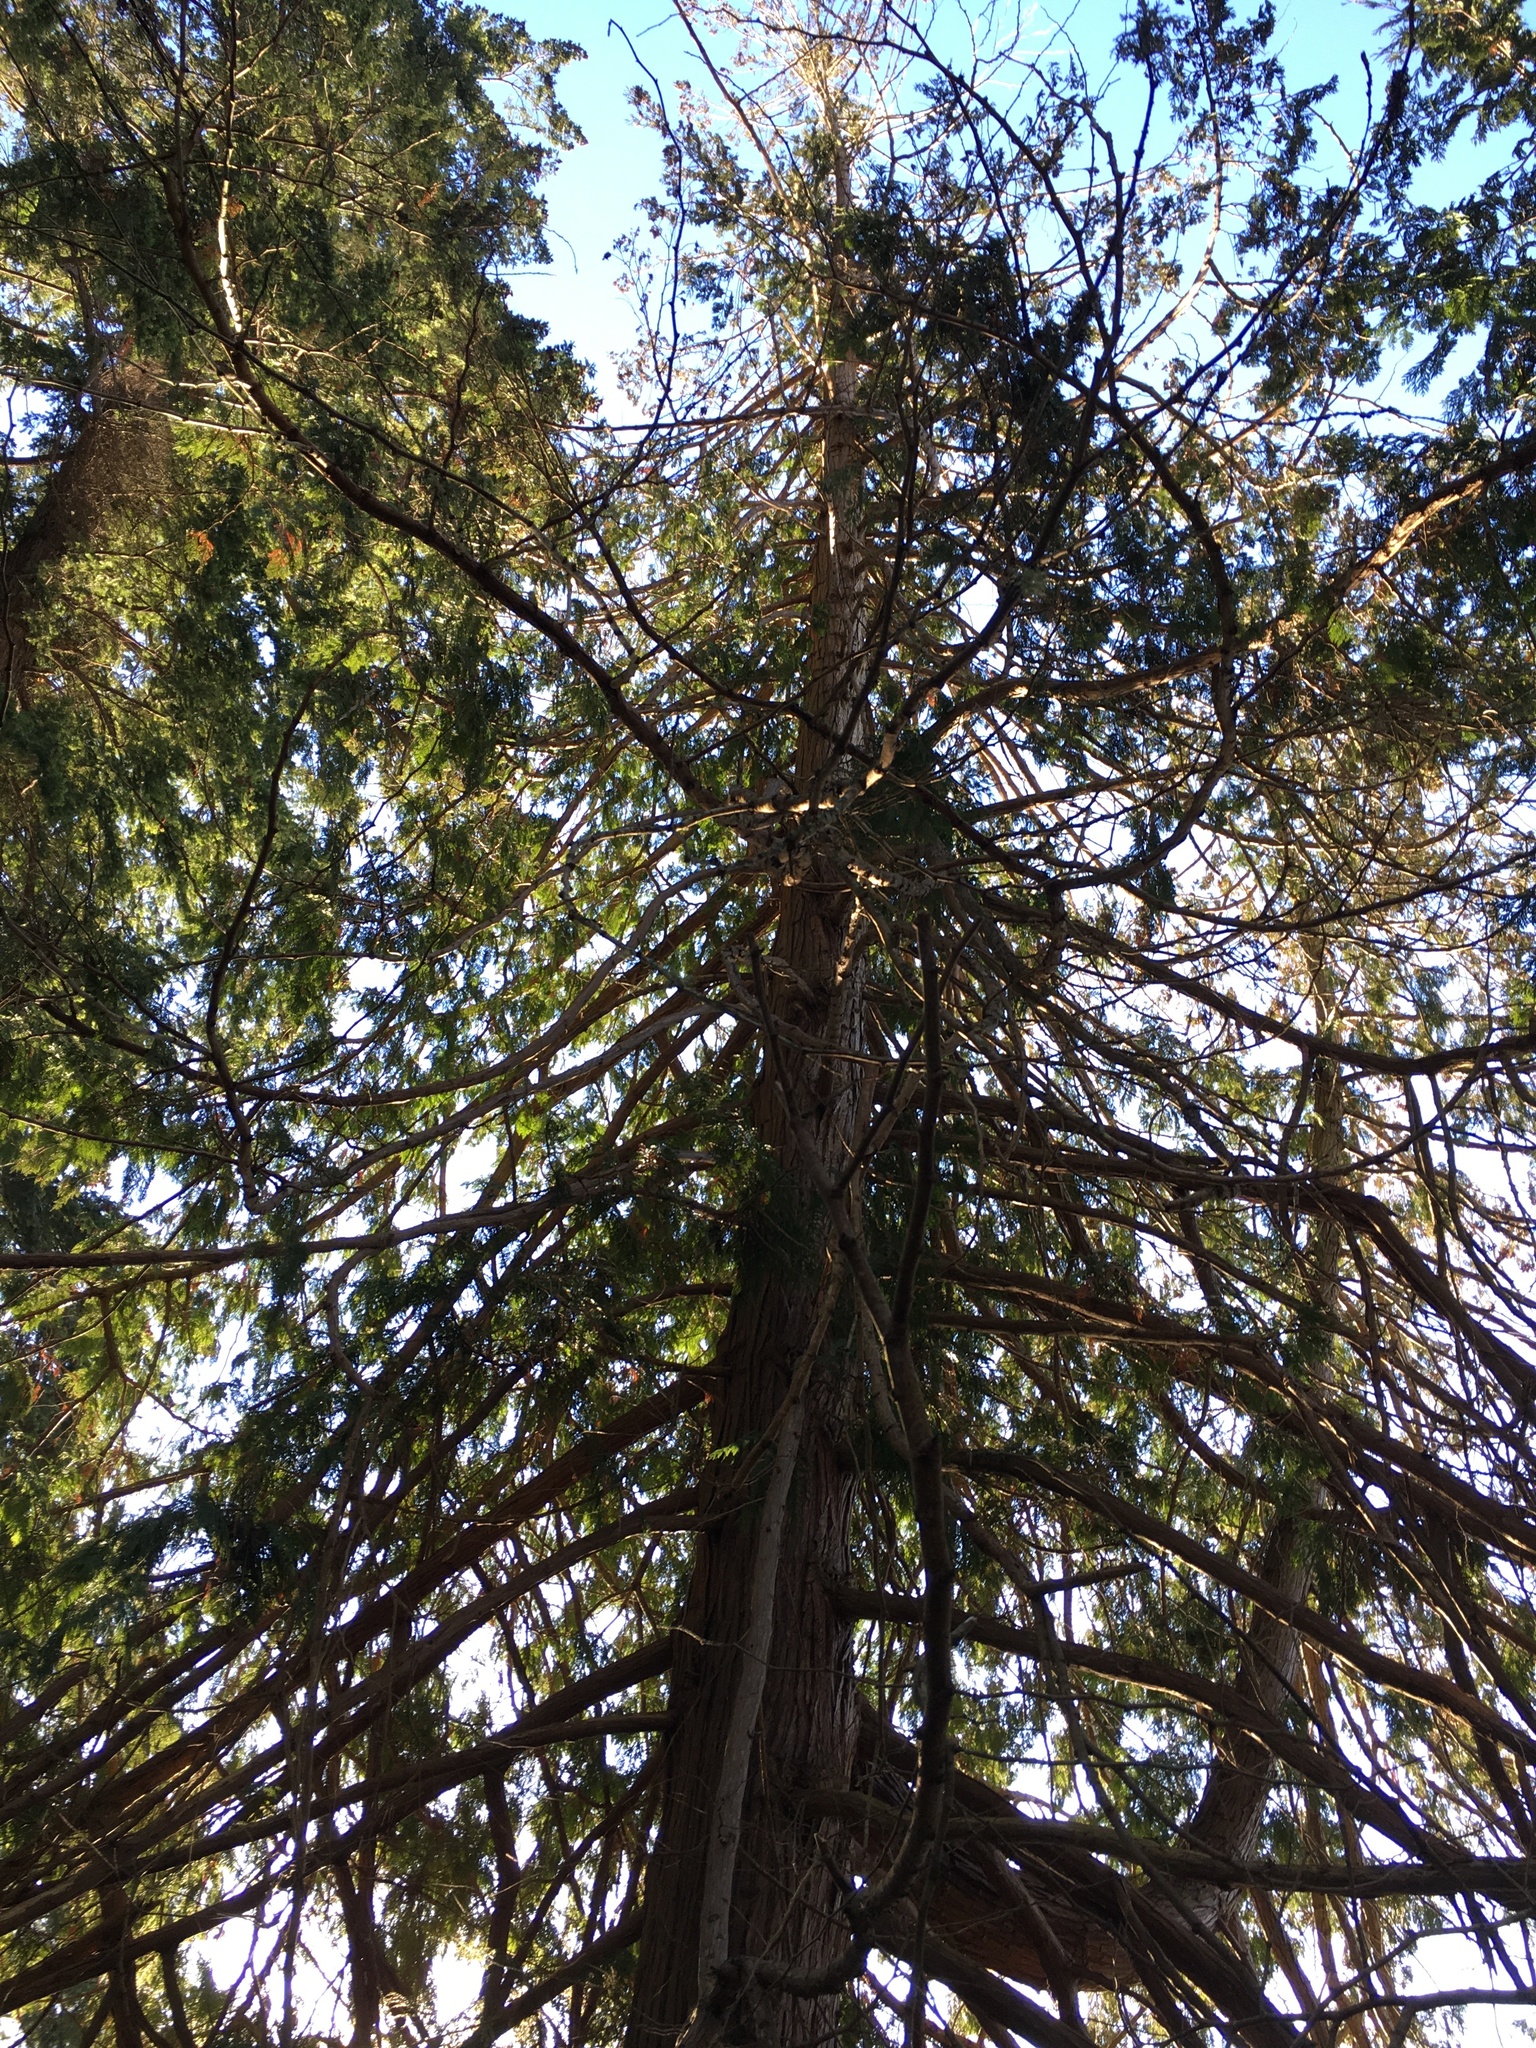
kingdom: Plantae
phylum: Tracheophyta
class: Pinopsida
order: Pinales
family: Cupressaceae
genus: Thuja
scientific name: Thuja plicata
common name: Western red-cedar
